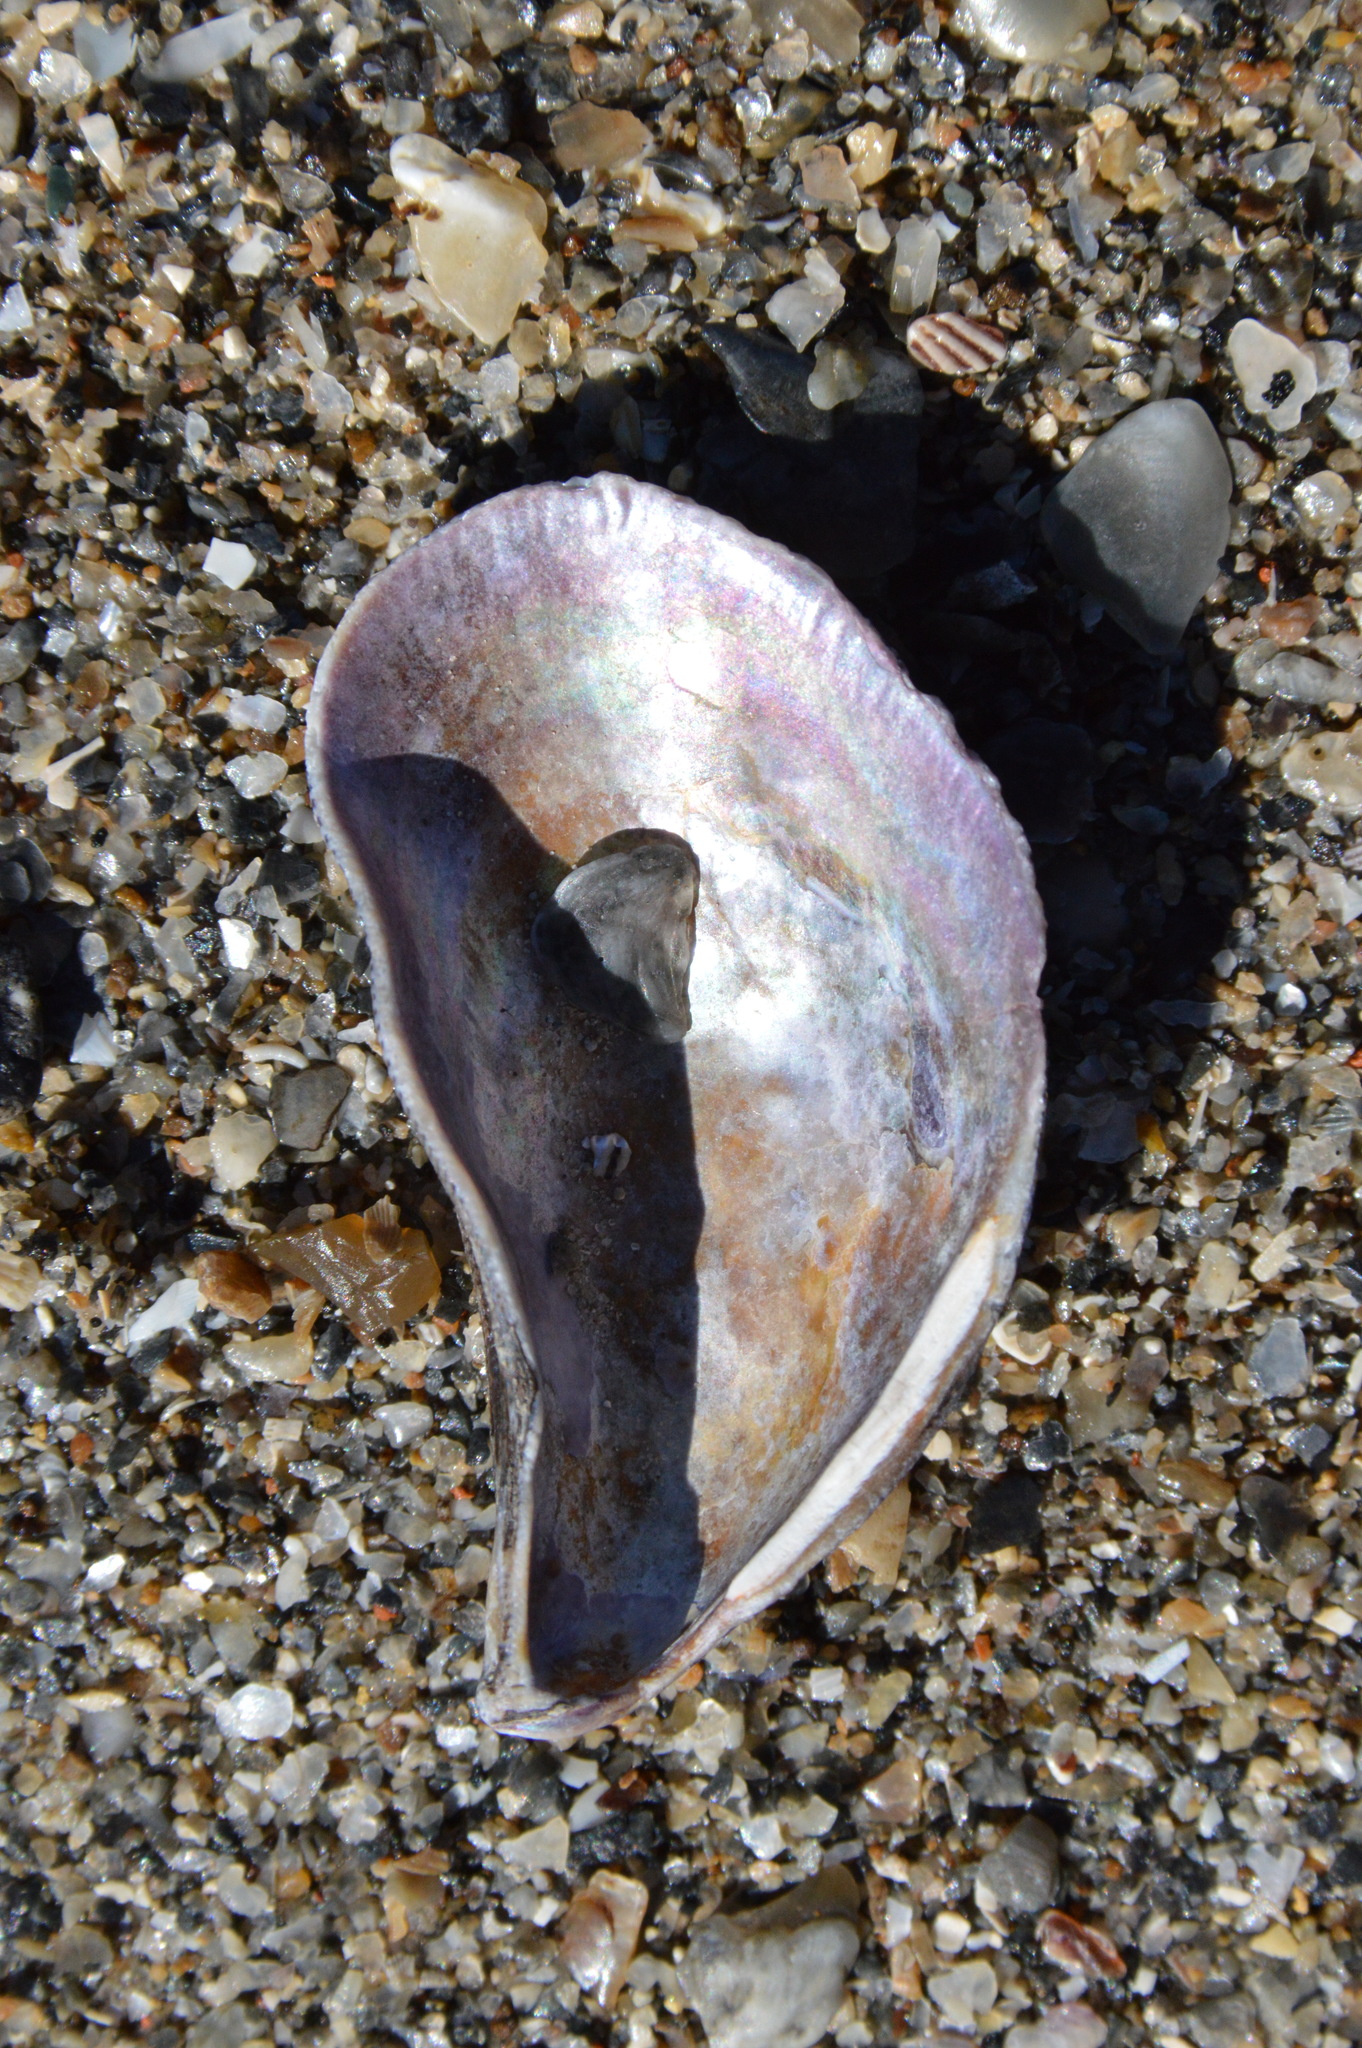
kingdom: Animalia
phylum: Mollusca
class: Bivalvia
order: Mytilida
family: Mytilidae
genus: Ischadium
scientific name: Ischadium recurvum
